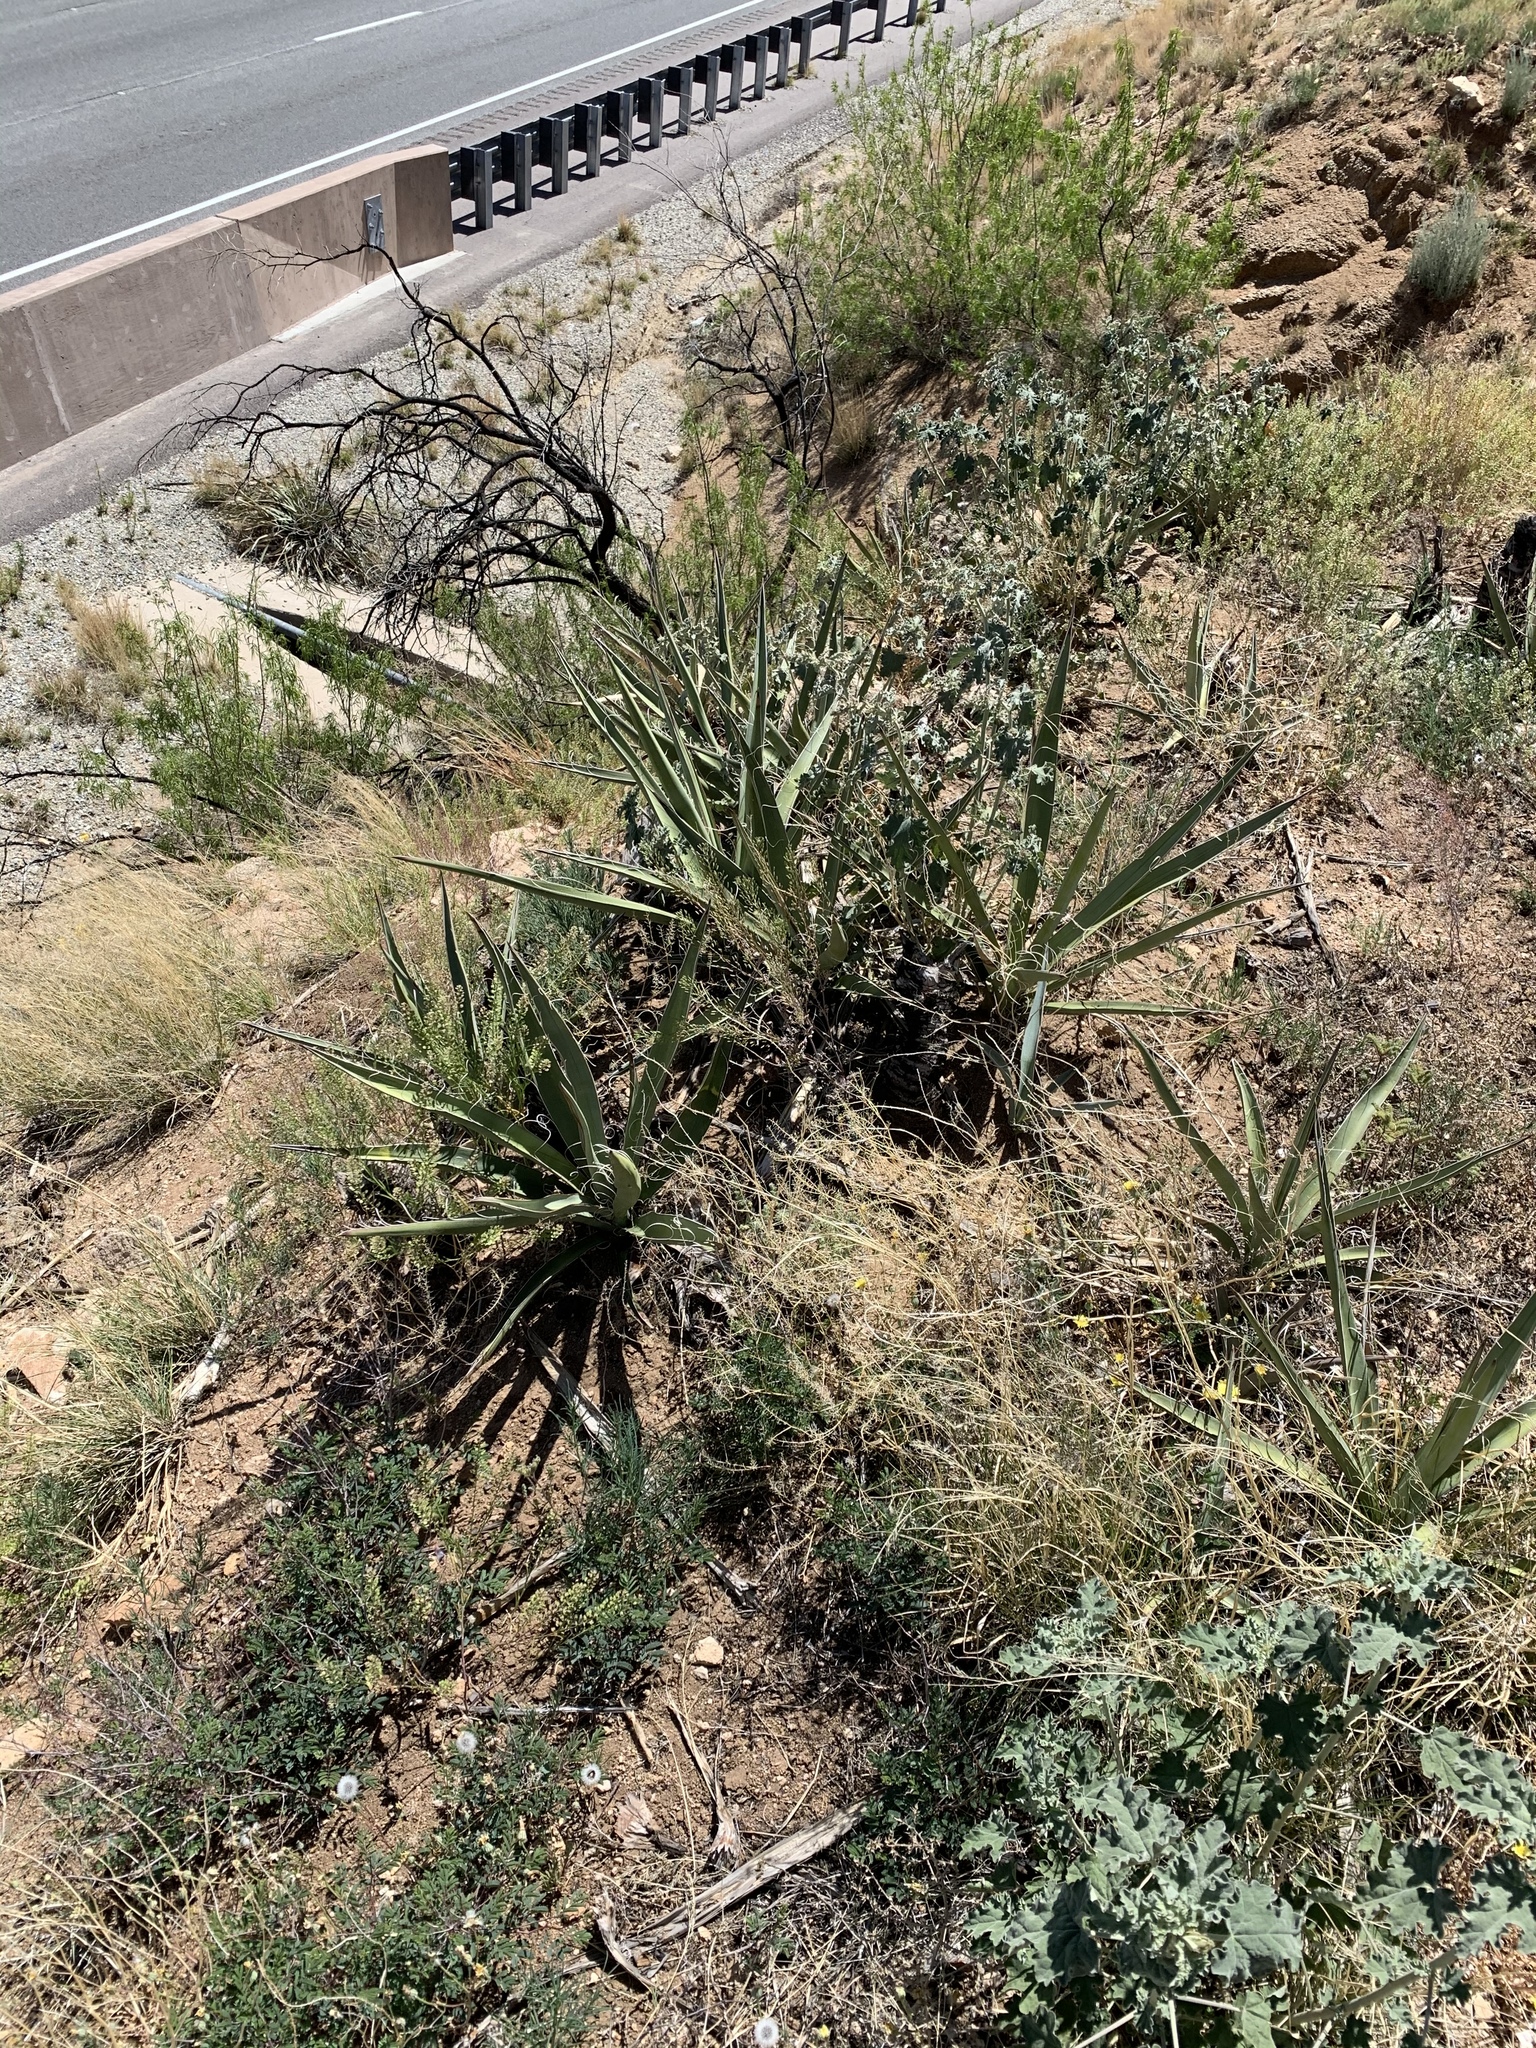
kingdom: Plantae
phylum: Tracheophyta
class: Liliopsida
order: Asparagales
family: Asparagaceae
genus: Yucca
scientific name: Yucca baccata
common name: Banana yucca
